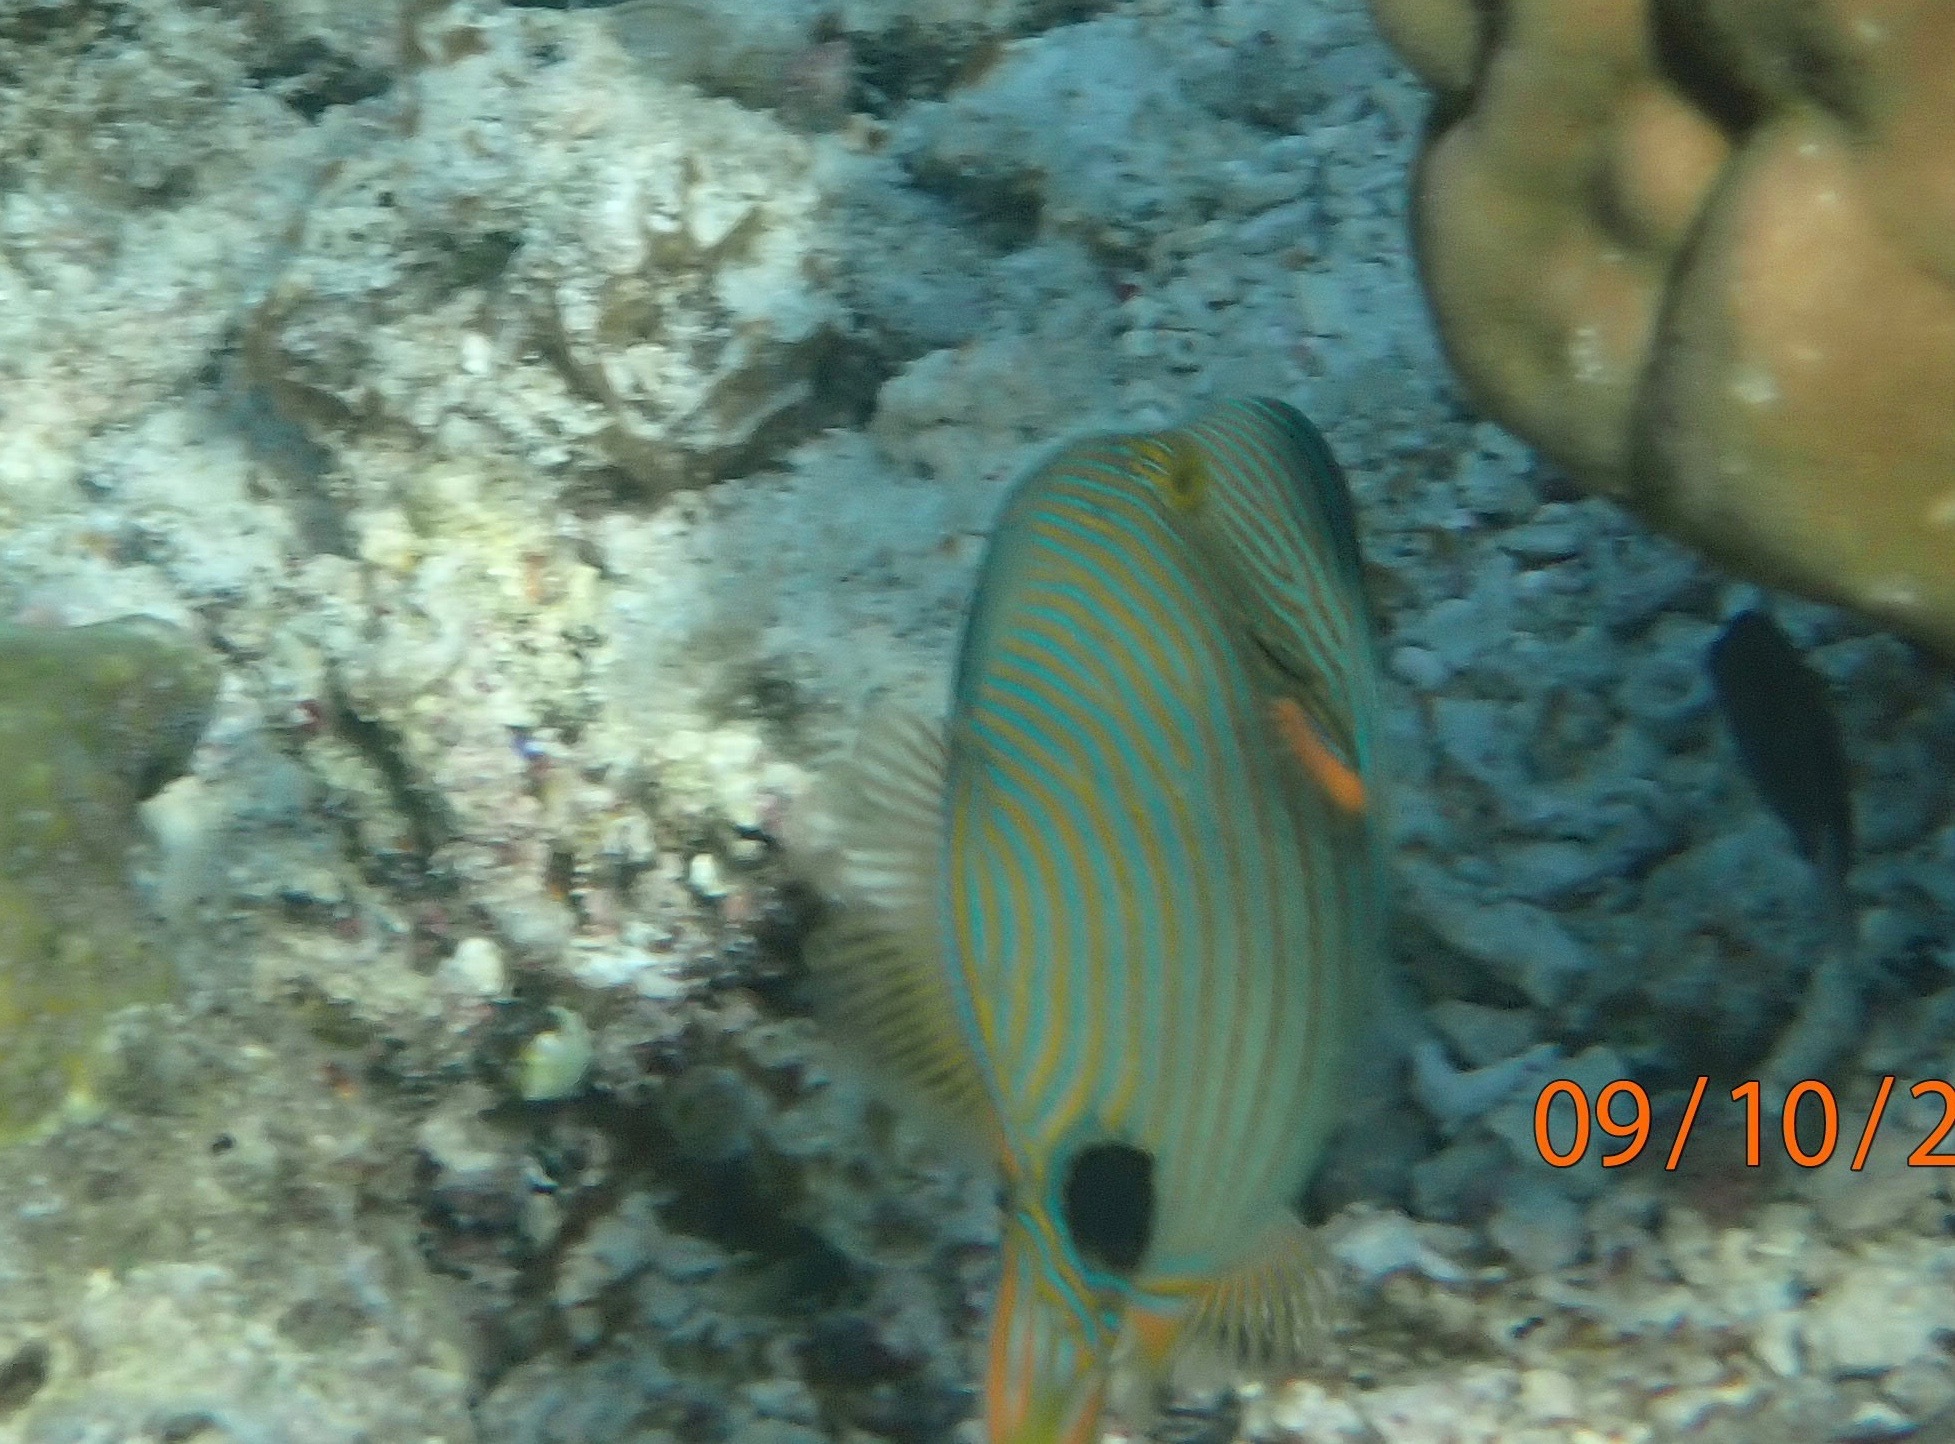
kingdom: Animalia
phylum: Chordata
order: Tetraodontiformes
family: Balistidae
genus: Balistapus
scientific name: Balistapus undulatus
